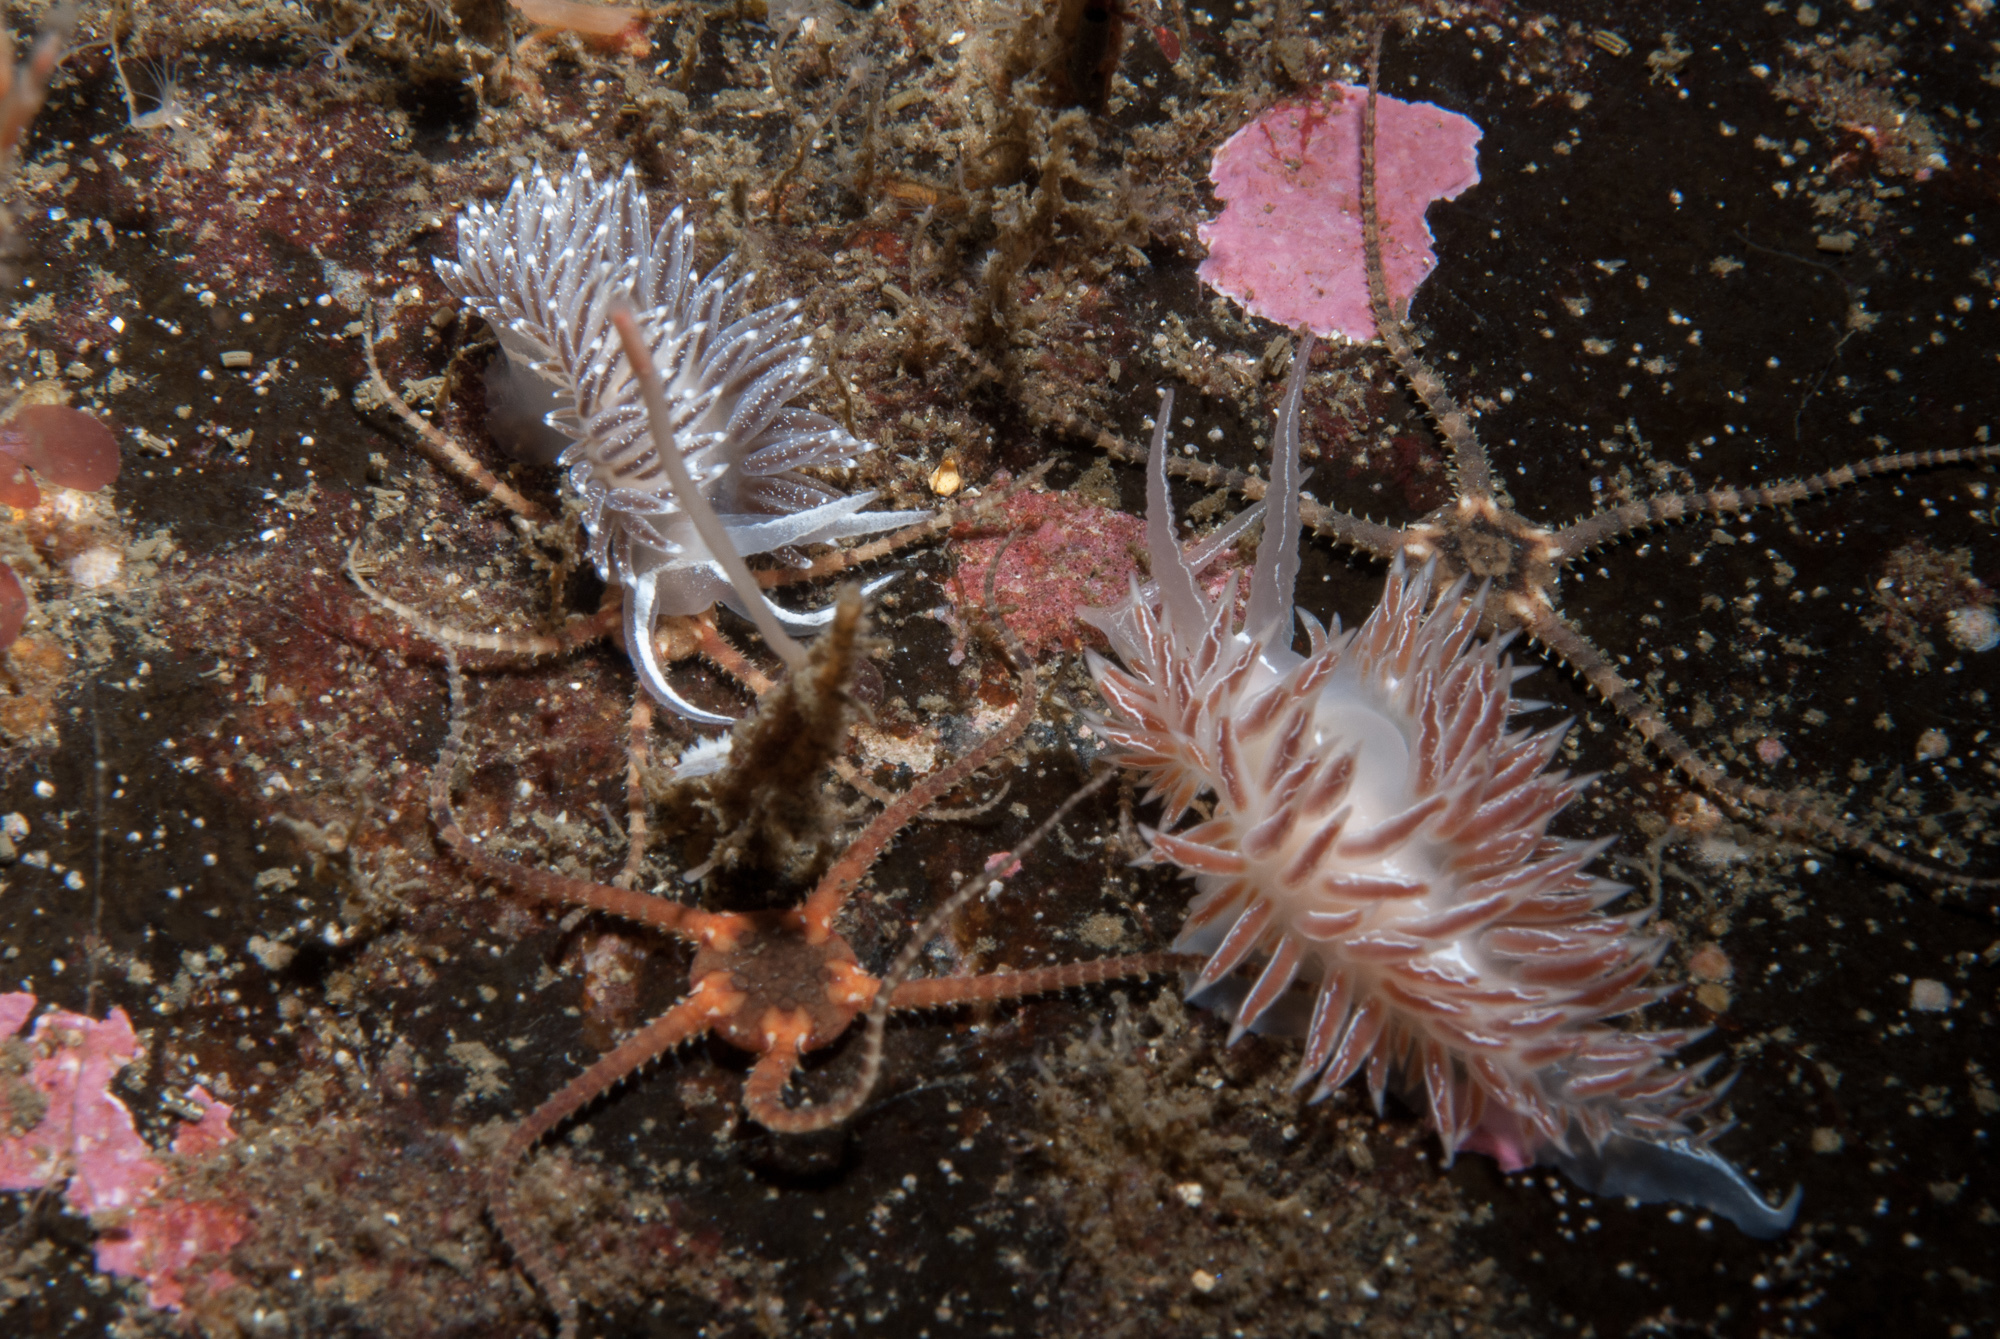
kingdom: Animalia
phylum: Mollusca
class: Gastropoda
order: Nudibranchia
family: Coryphellidae
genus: Coryphella
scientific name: Coryphella chriskaugei
